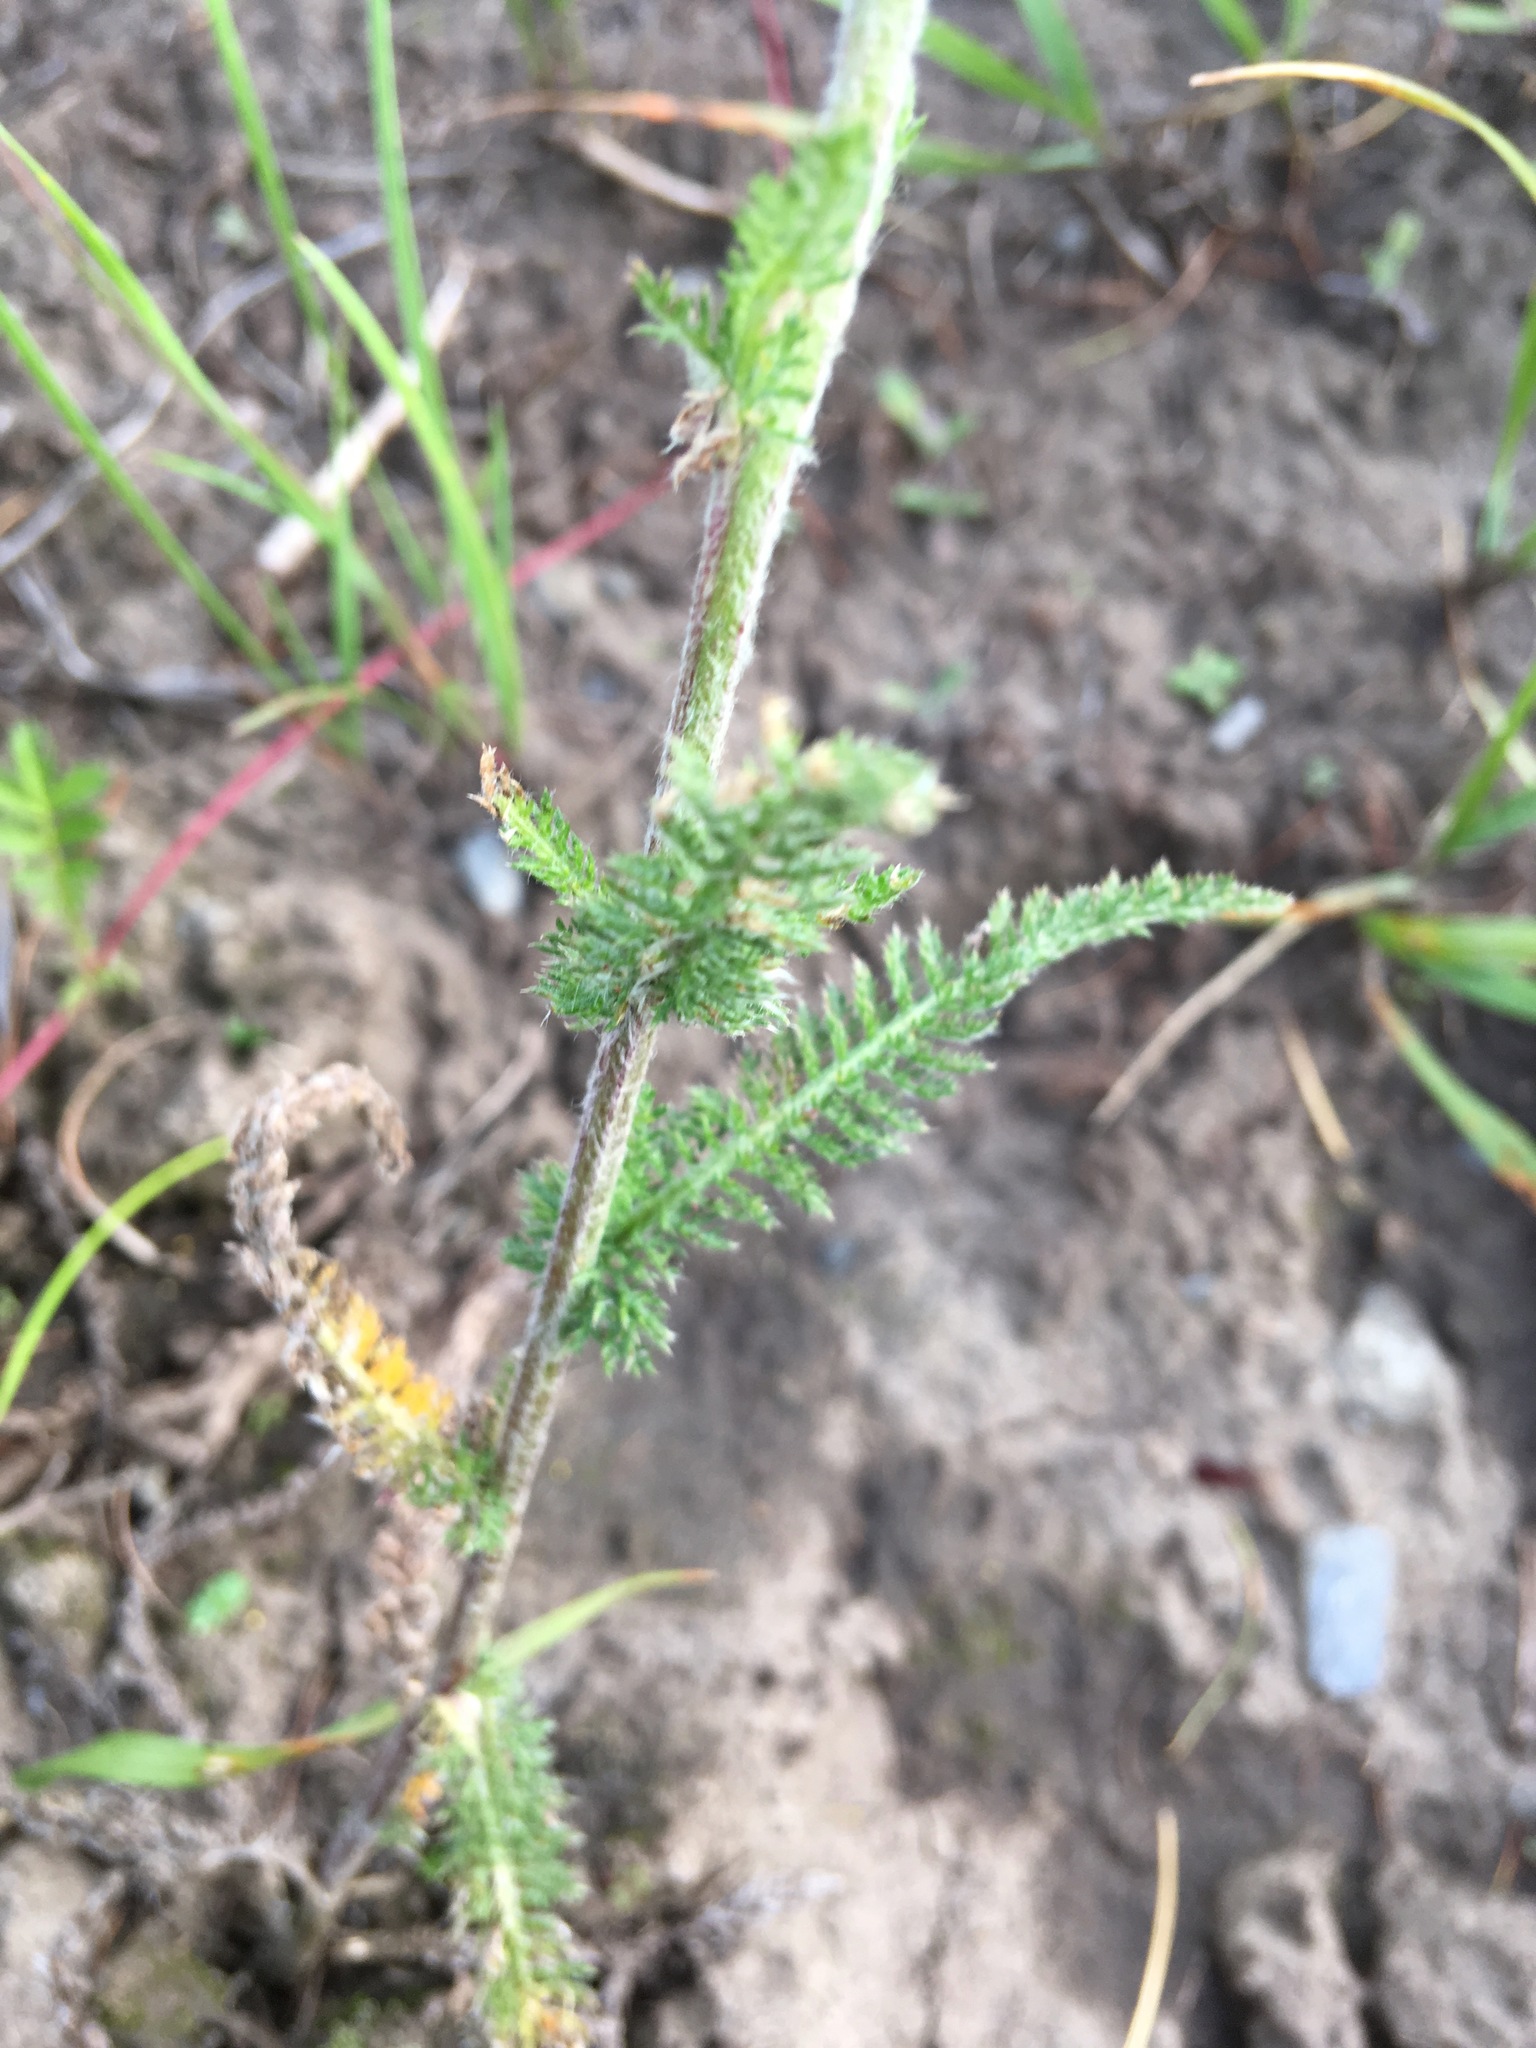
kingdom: Plantae
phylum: Tracheophyta
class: Magnoliopsida
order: Asterales
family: Asteraceae
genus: Achillea
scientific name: Achillea asiatica
